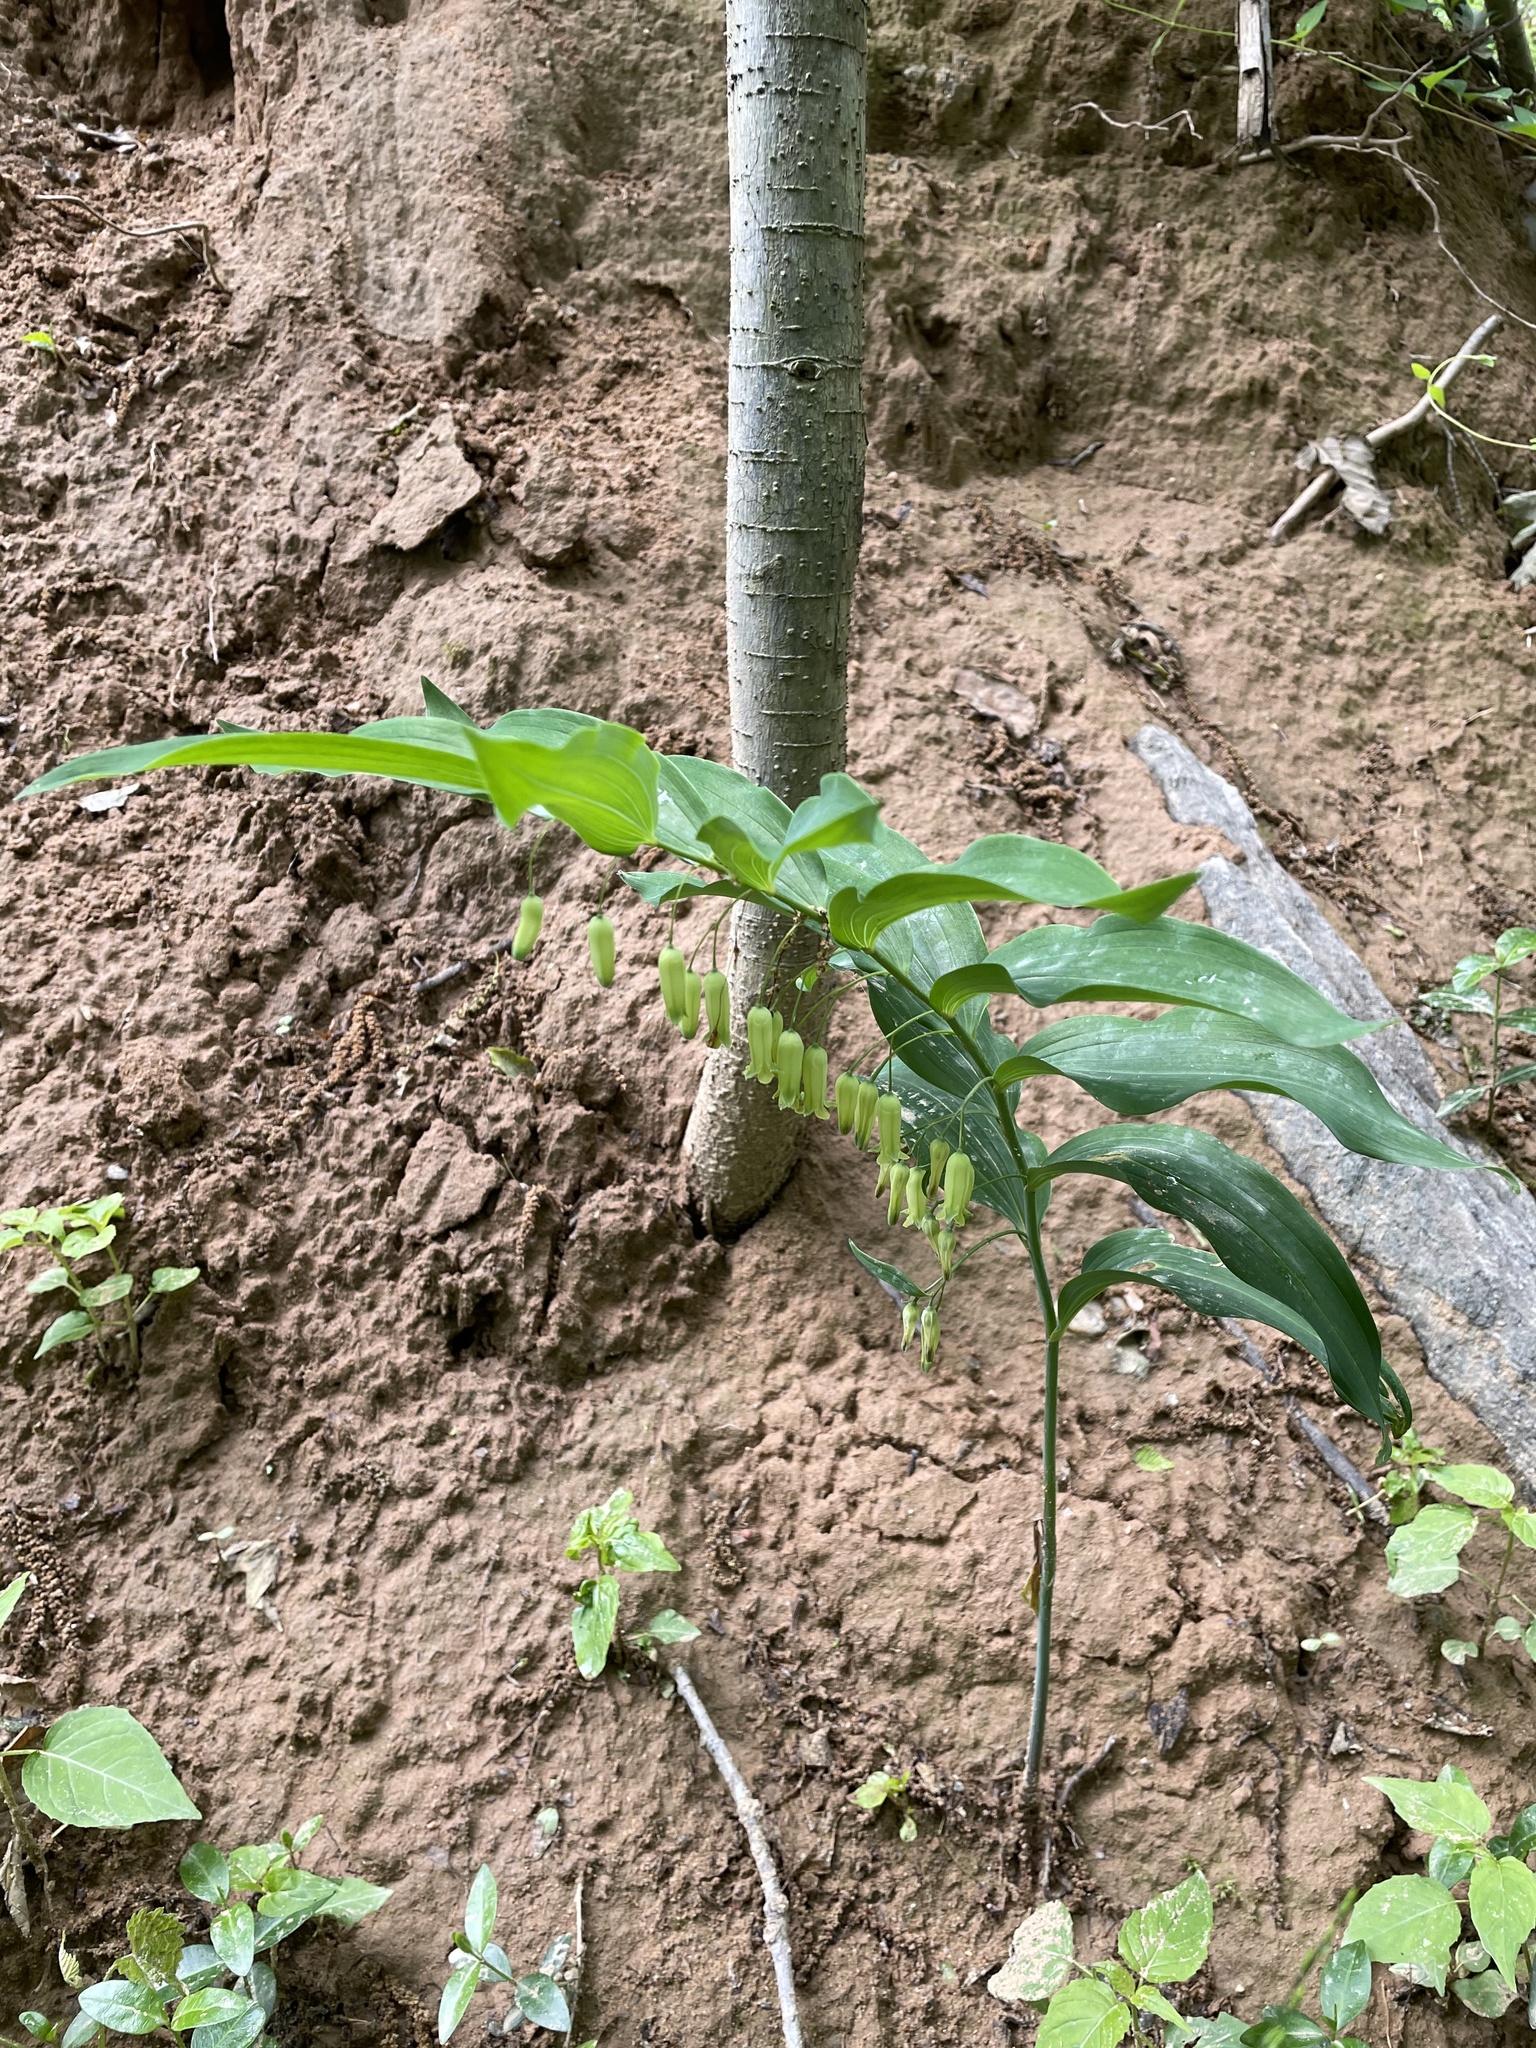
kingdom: Plantae
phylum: Tracheophyta
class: Liliopsida
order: Asparagales
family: Asparagaceae
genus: Polygonatum
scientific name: Polygonatum biflorum
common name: American solomon's-seal
